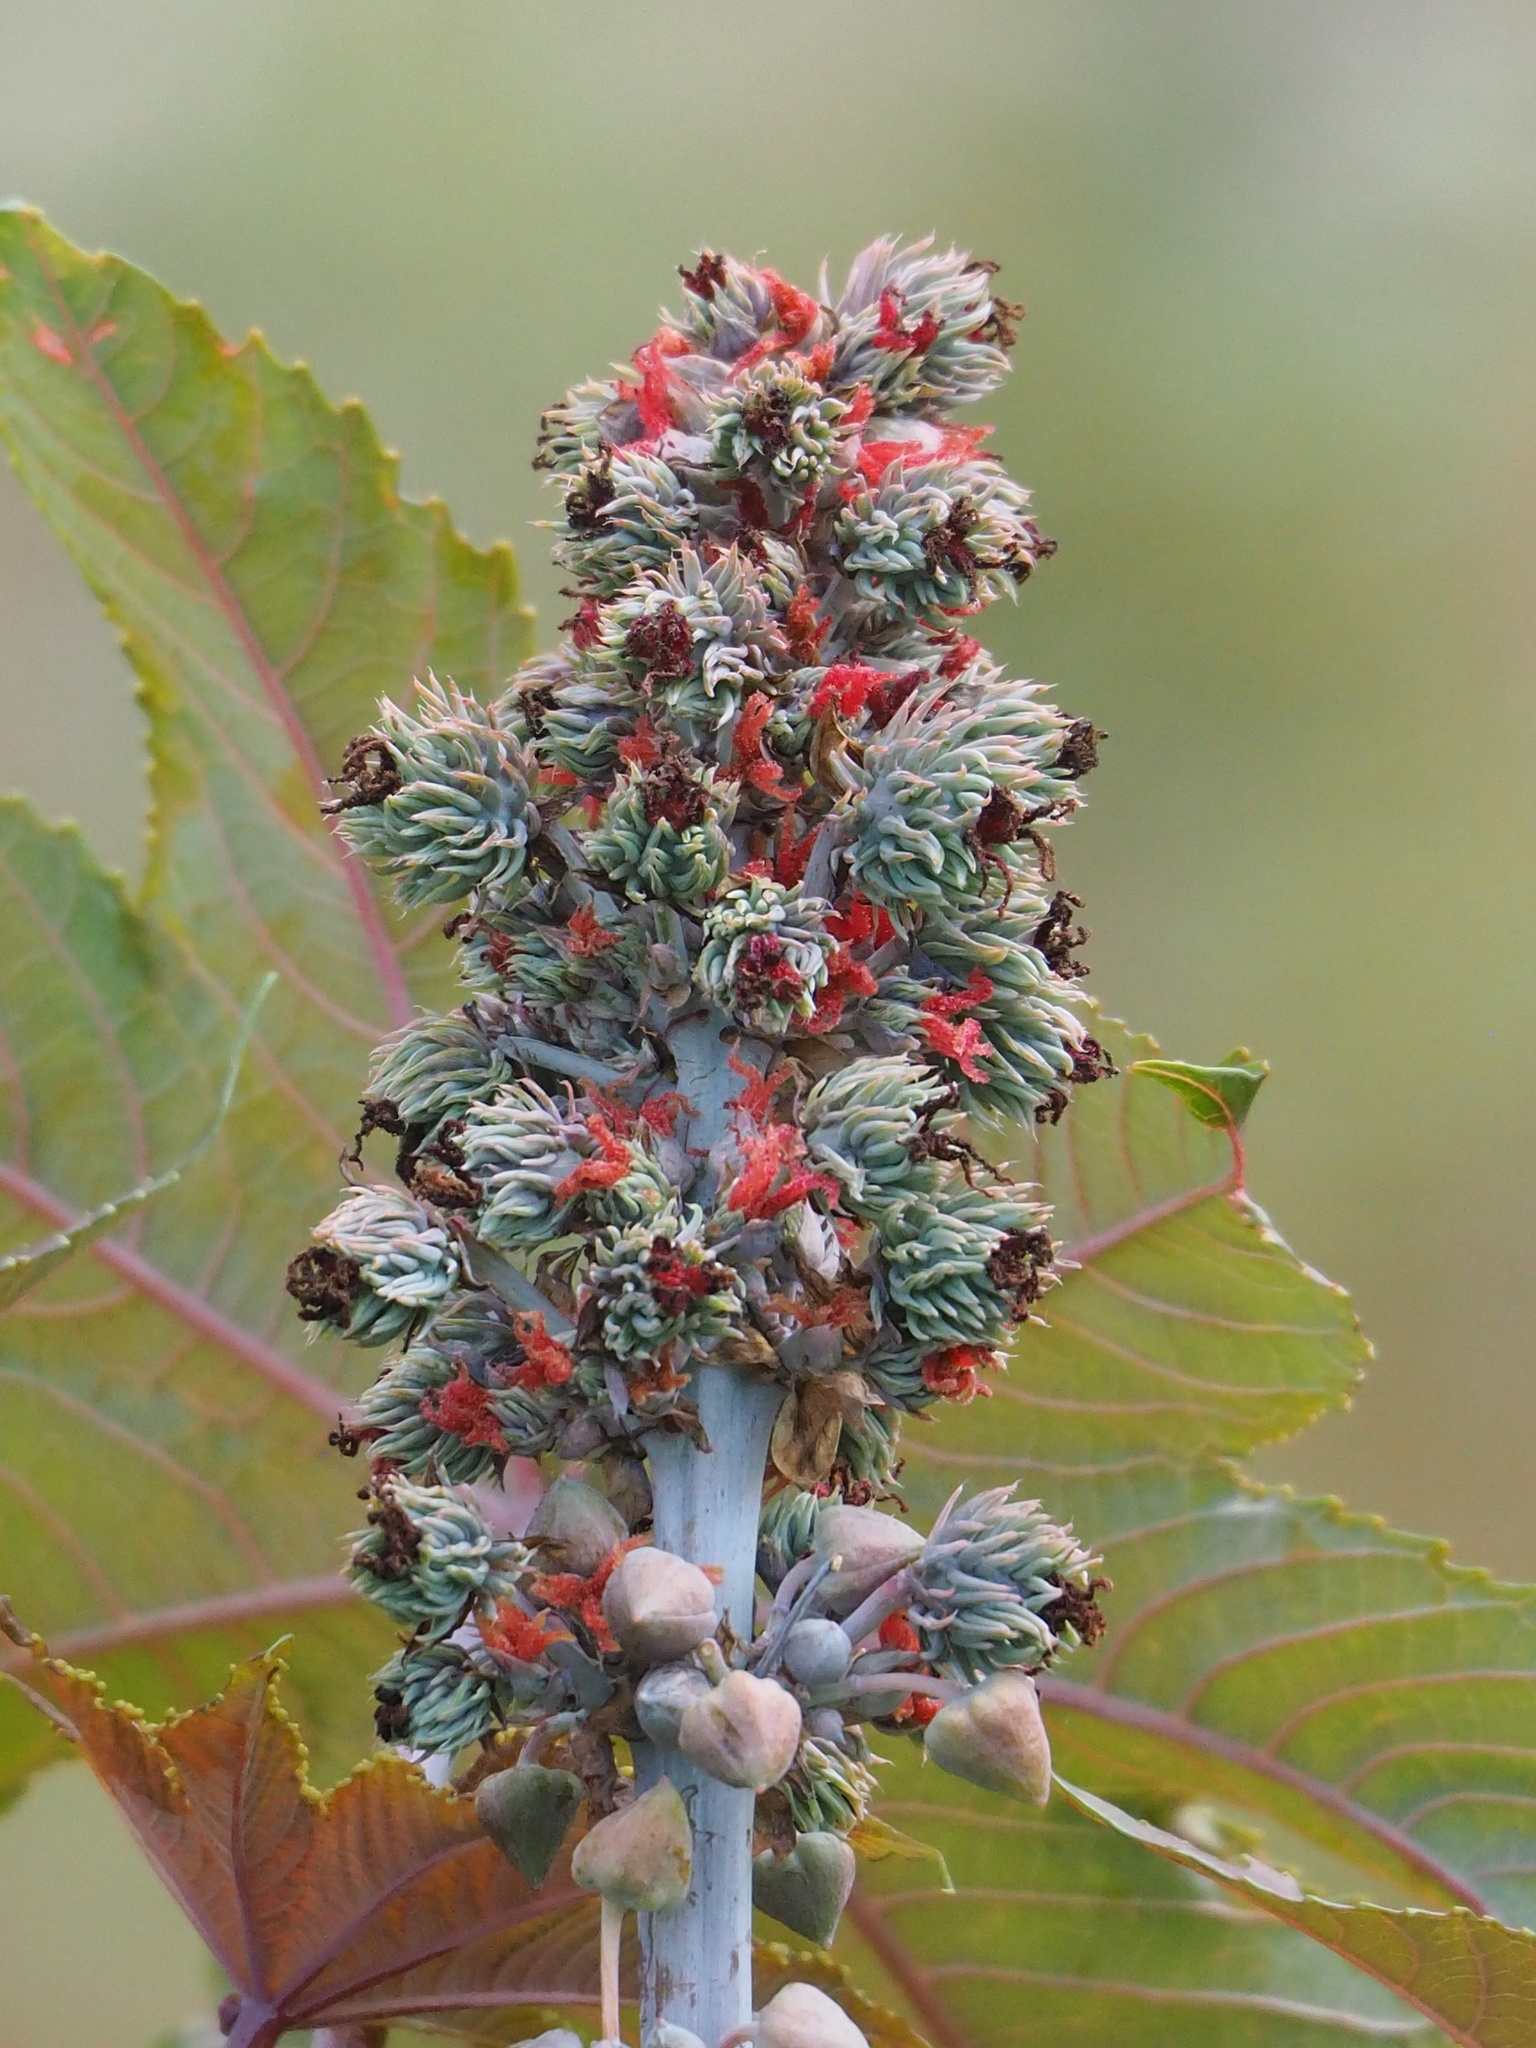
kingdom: Plantae
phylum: Tracheophyta
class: Magnoliopsida
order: Malpighiales
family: Euphorbiaceae
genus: Ricinus
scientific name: Ricinus communis
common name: Castor-oil-plant
